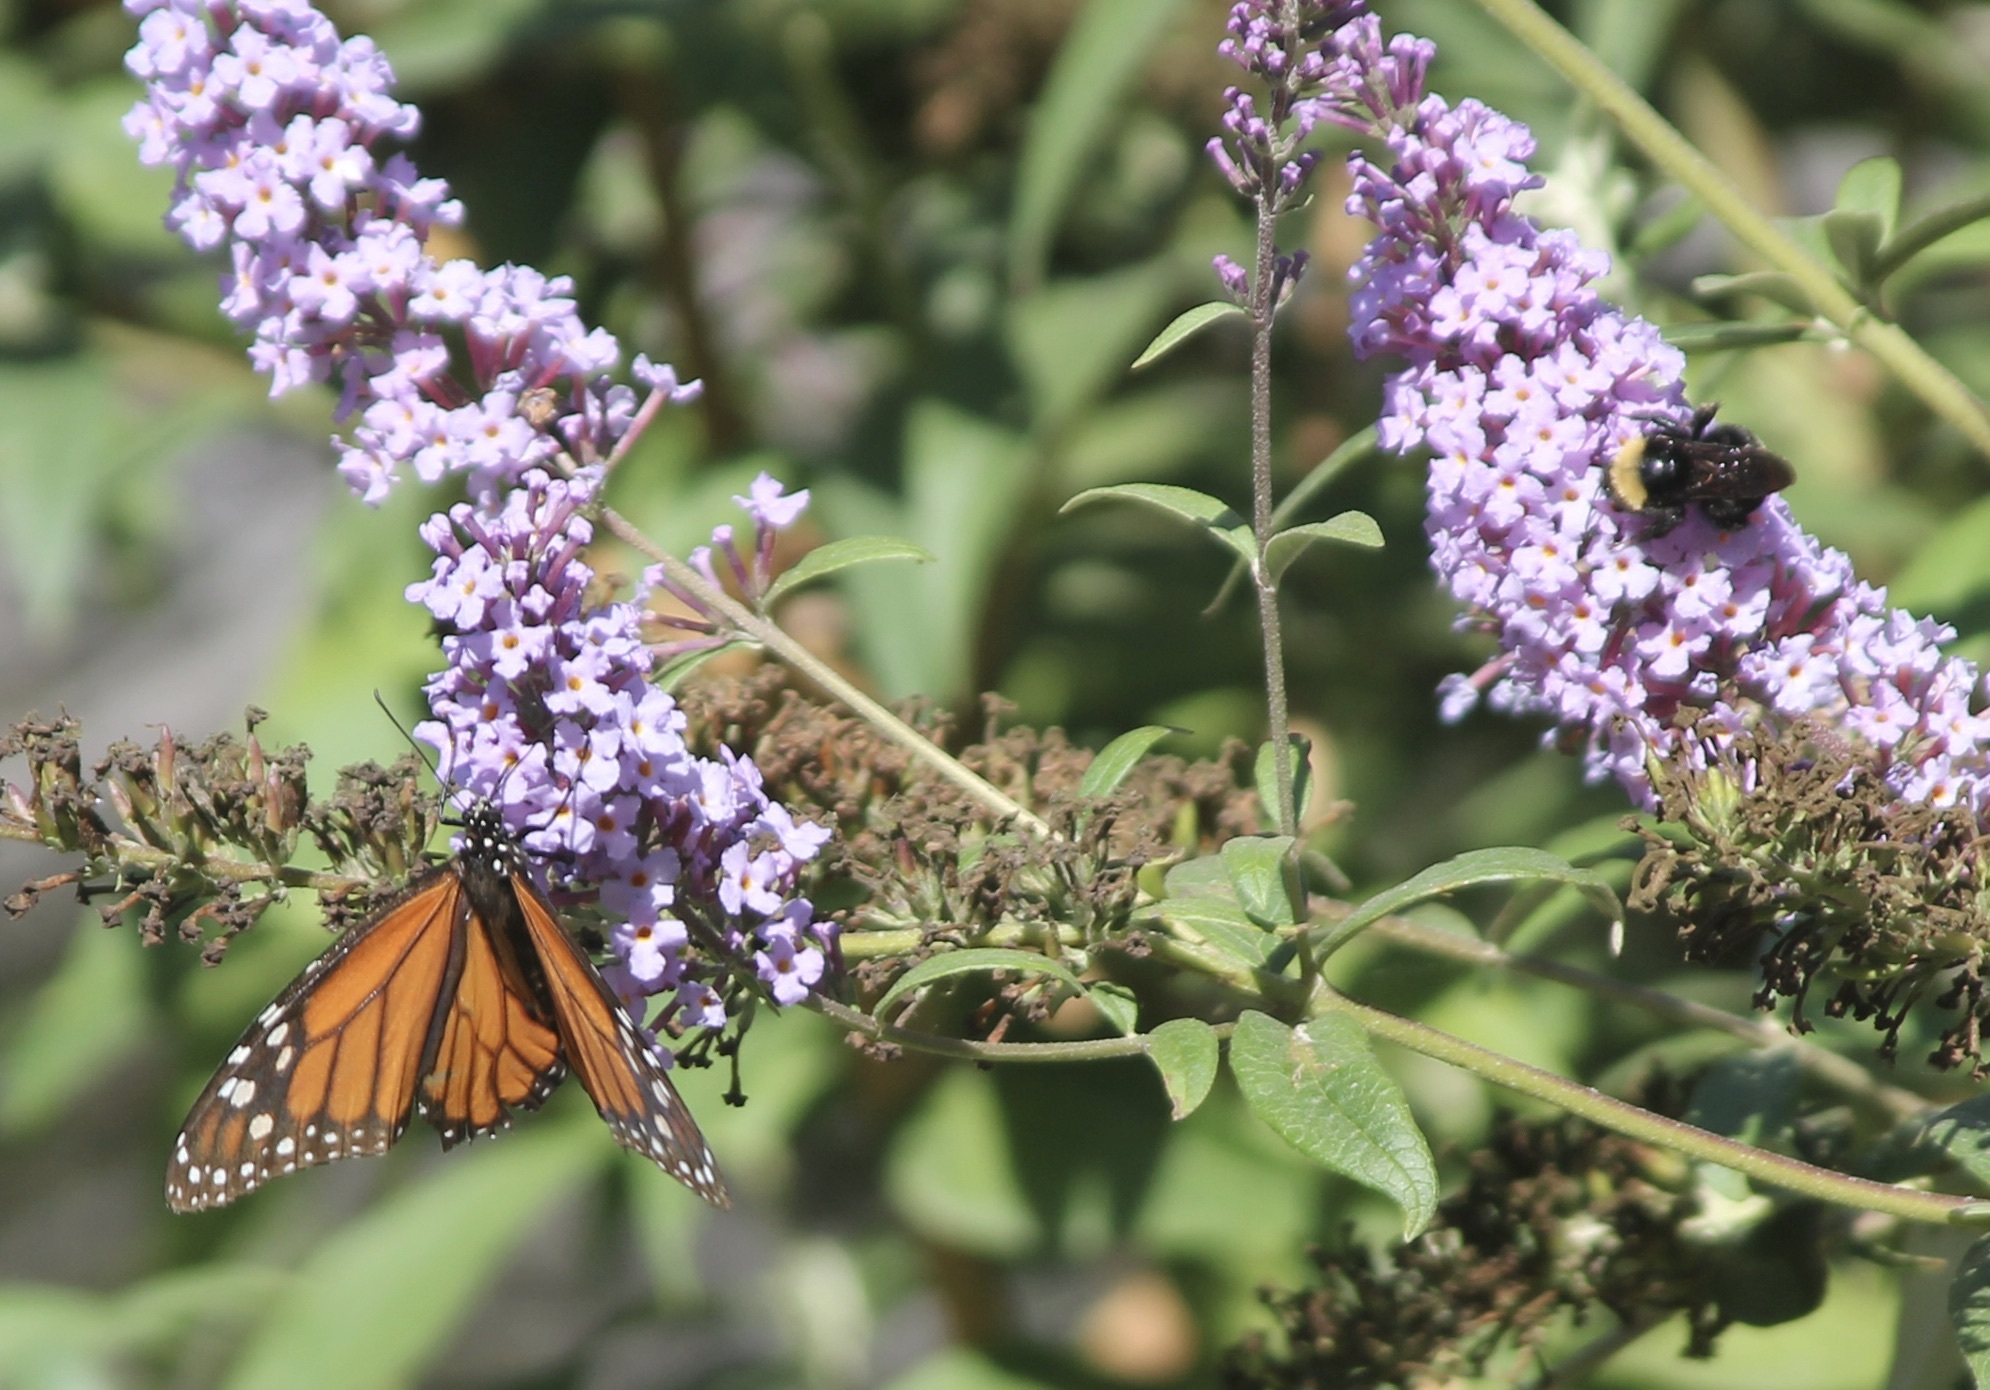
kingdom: Animalia
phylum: Arthropoda
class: Insecta
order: Lepidoptera
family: Nymphalidae
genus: Danaus
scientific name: Danaus plexippus
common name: Monarch
